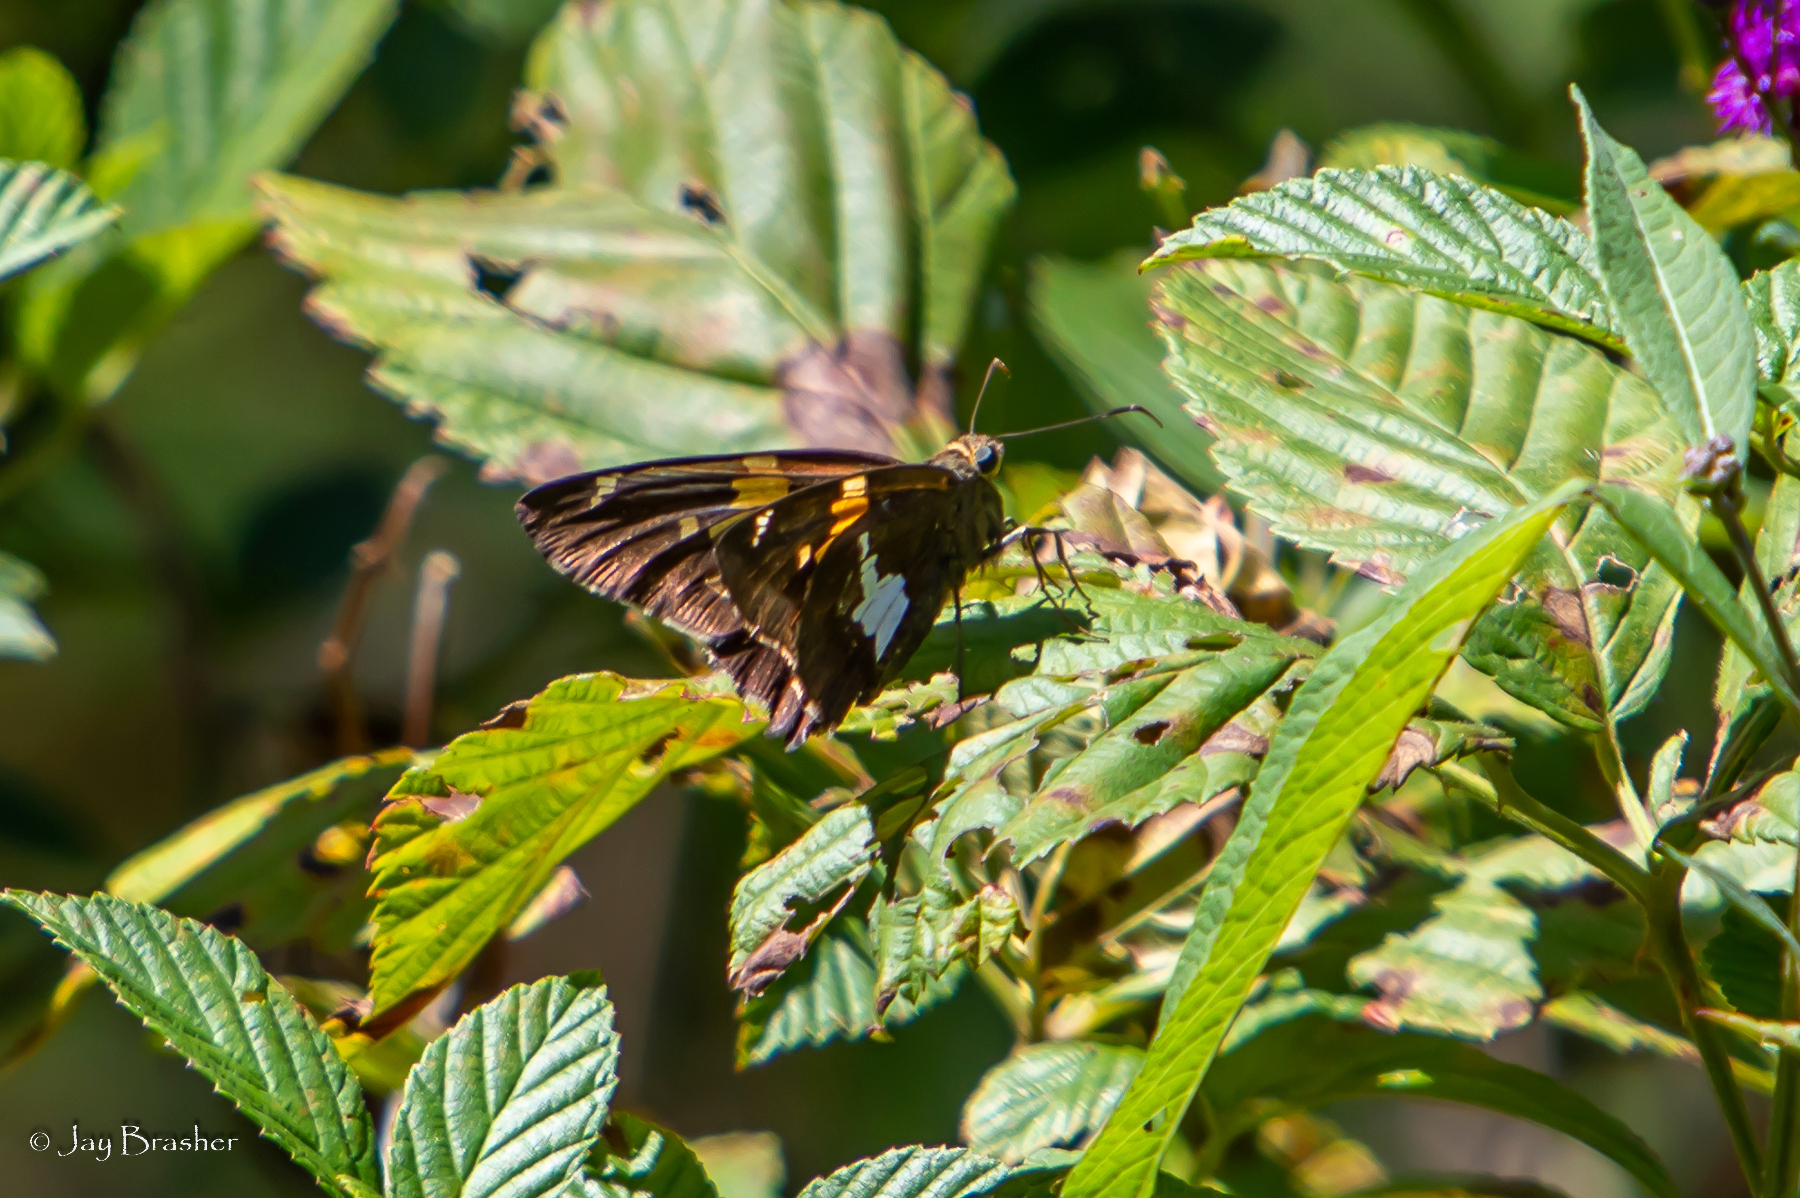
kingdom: Animalia
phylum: Arthropoda
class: Insecta
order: Lepidoptera
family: Hesperiidae
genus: Epargyreus
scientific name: Epargyreus clarus
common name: Silver-spotted skipper
